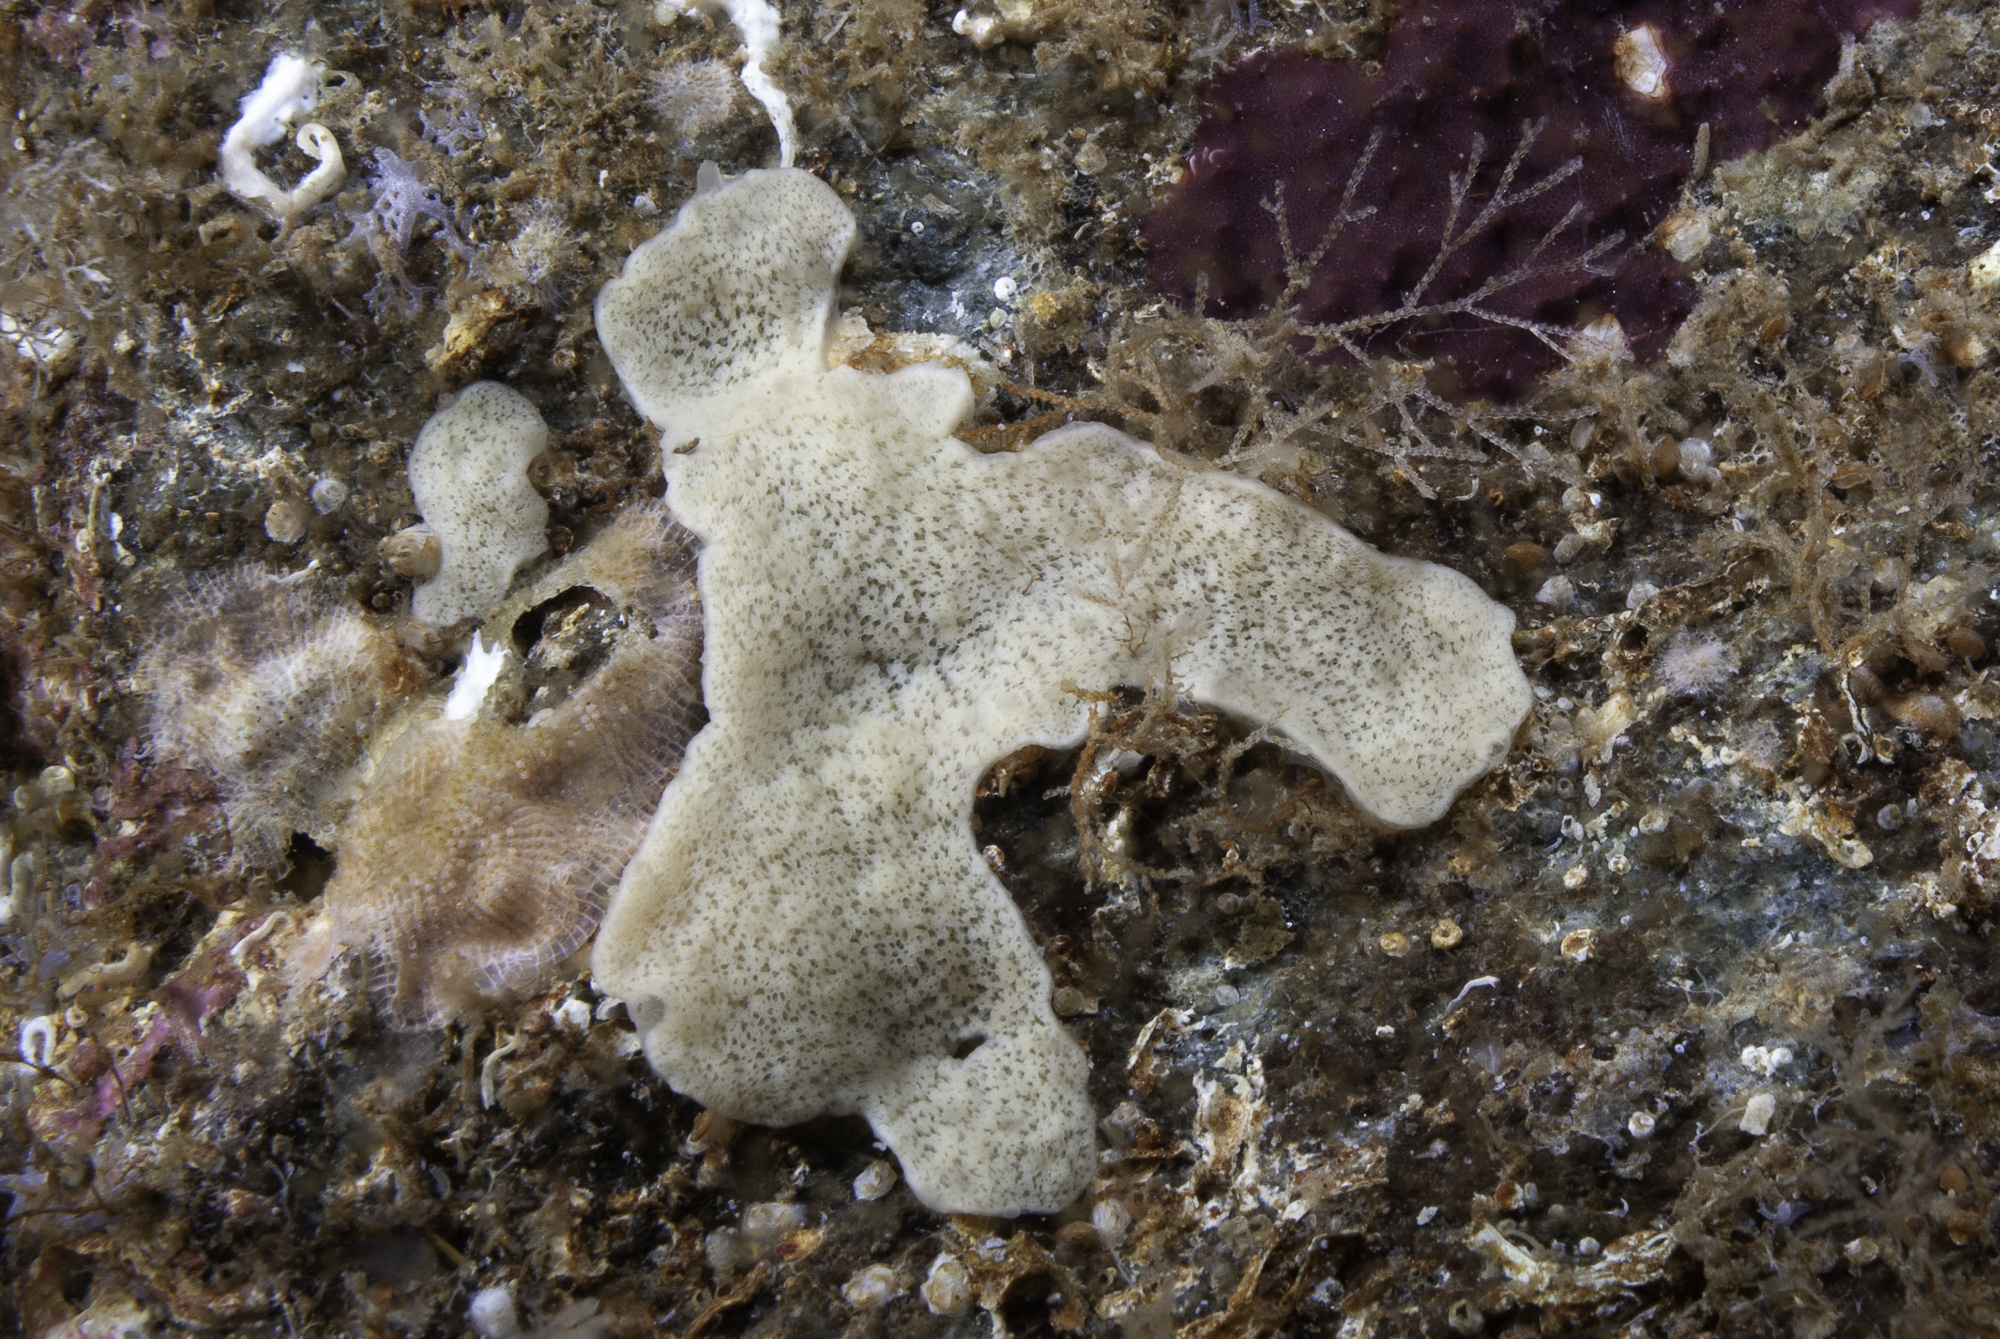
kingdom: Animalia
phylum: Porifera
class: Homoscleromorpha
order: Homosclerophorida
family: Plakinidae
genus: Plakina
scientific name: Plakina monolopha
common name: Simple-rayed membrane sponge
